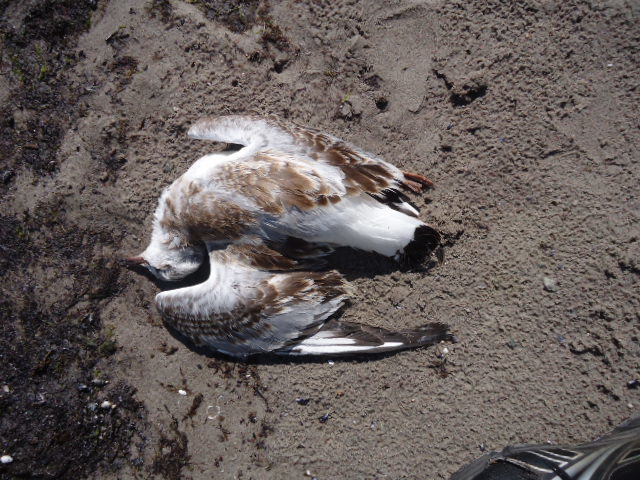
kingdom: Animalia
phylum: Chordata
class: Aves
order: Charadriiformes
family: Laridae
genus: Chroicocephalus
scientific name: Chroicocephalus ridibundus
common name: Black-headed gull
